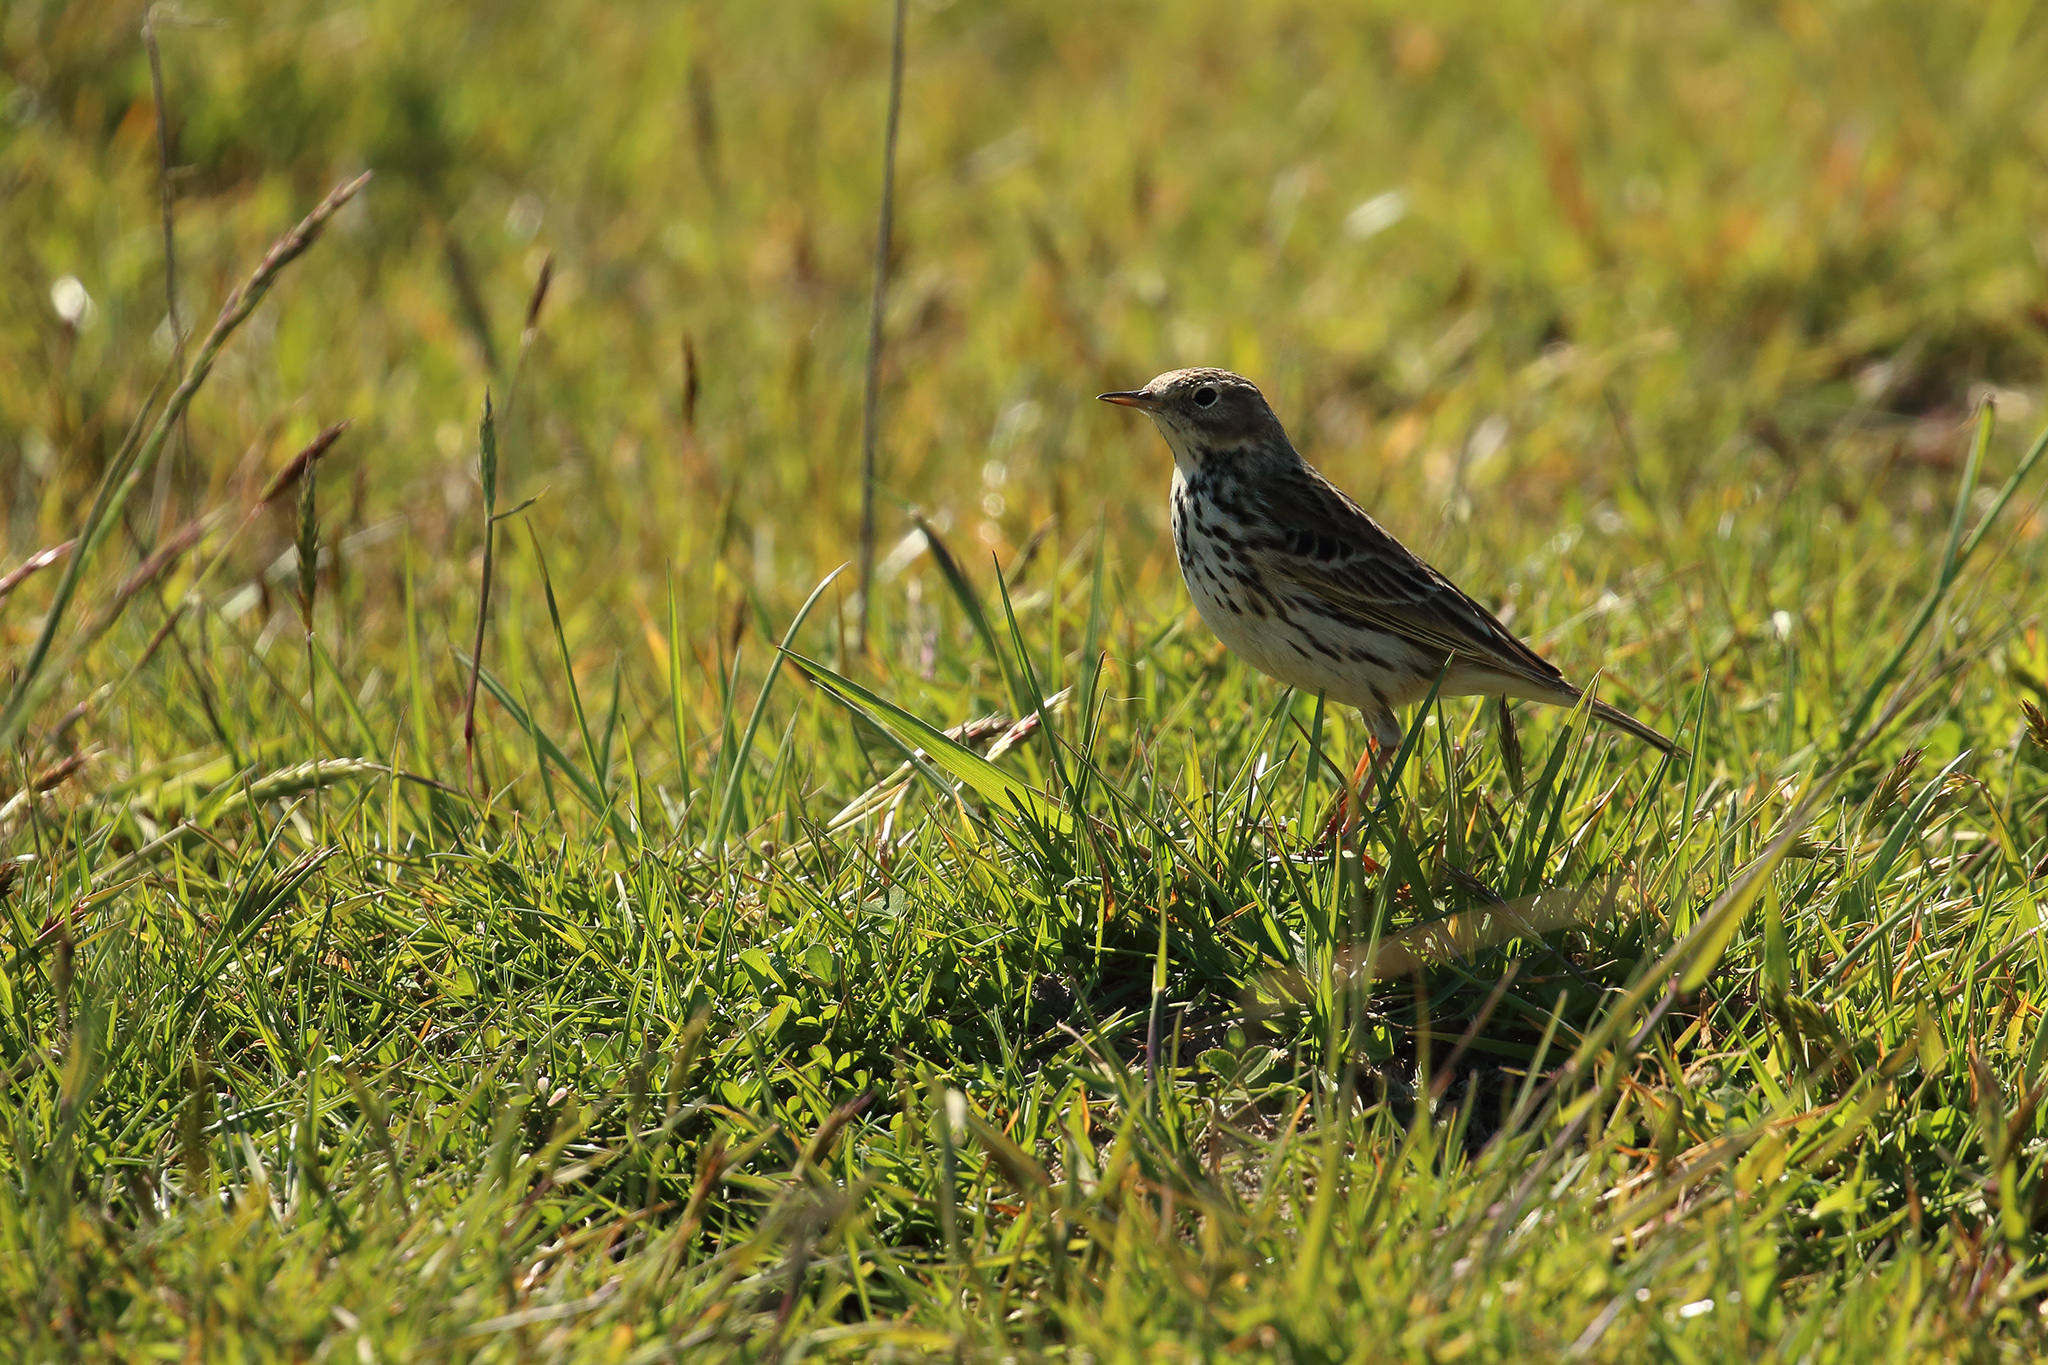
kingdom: Animalia
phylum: Chordata
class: Aves
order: Passeriformes
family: Motacillidae
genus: Anthus
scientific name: Anthus pratensis
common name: Meadow pipit
